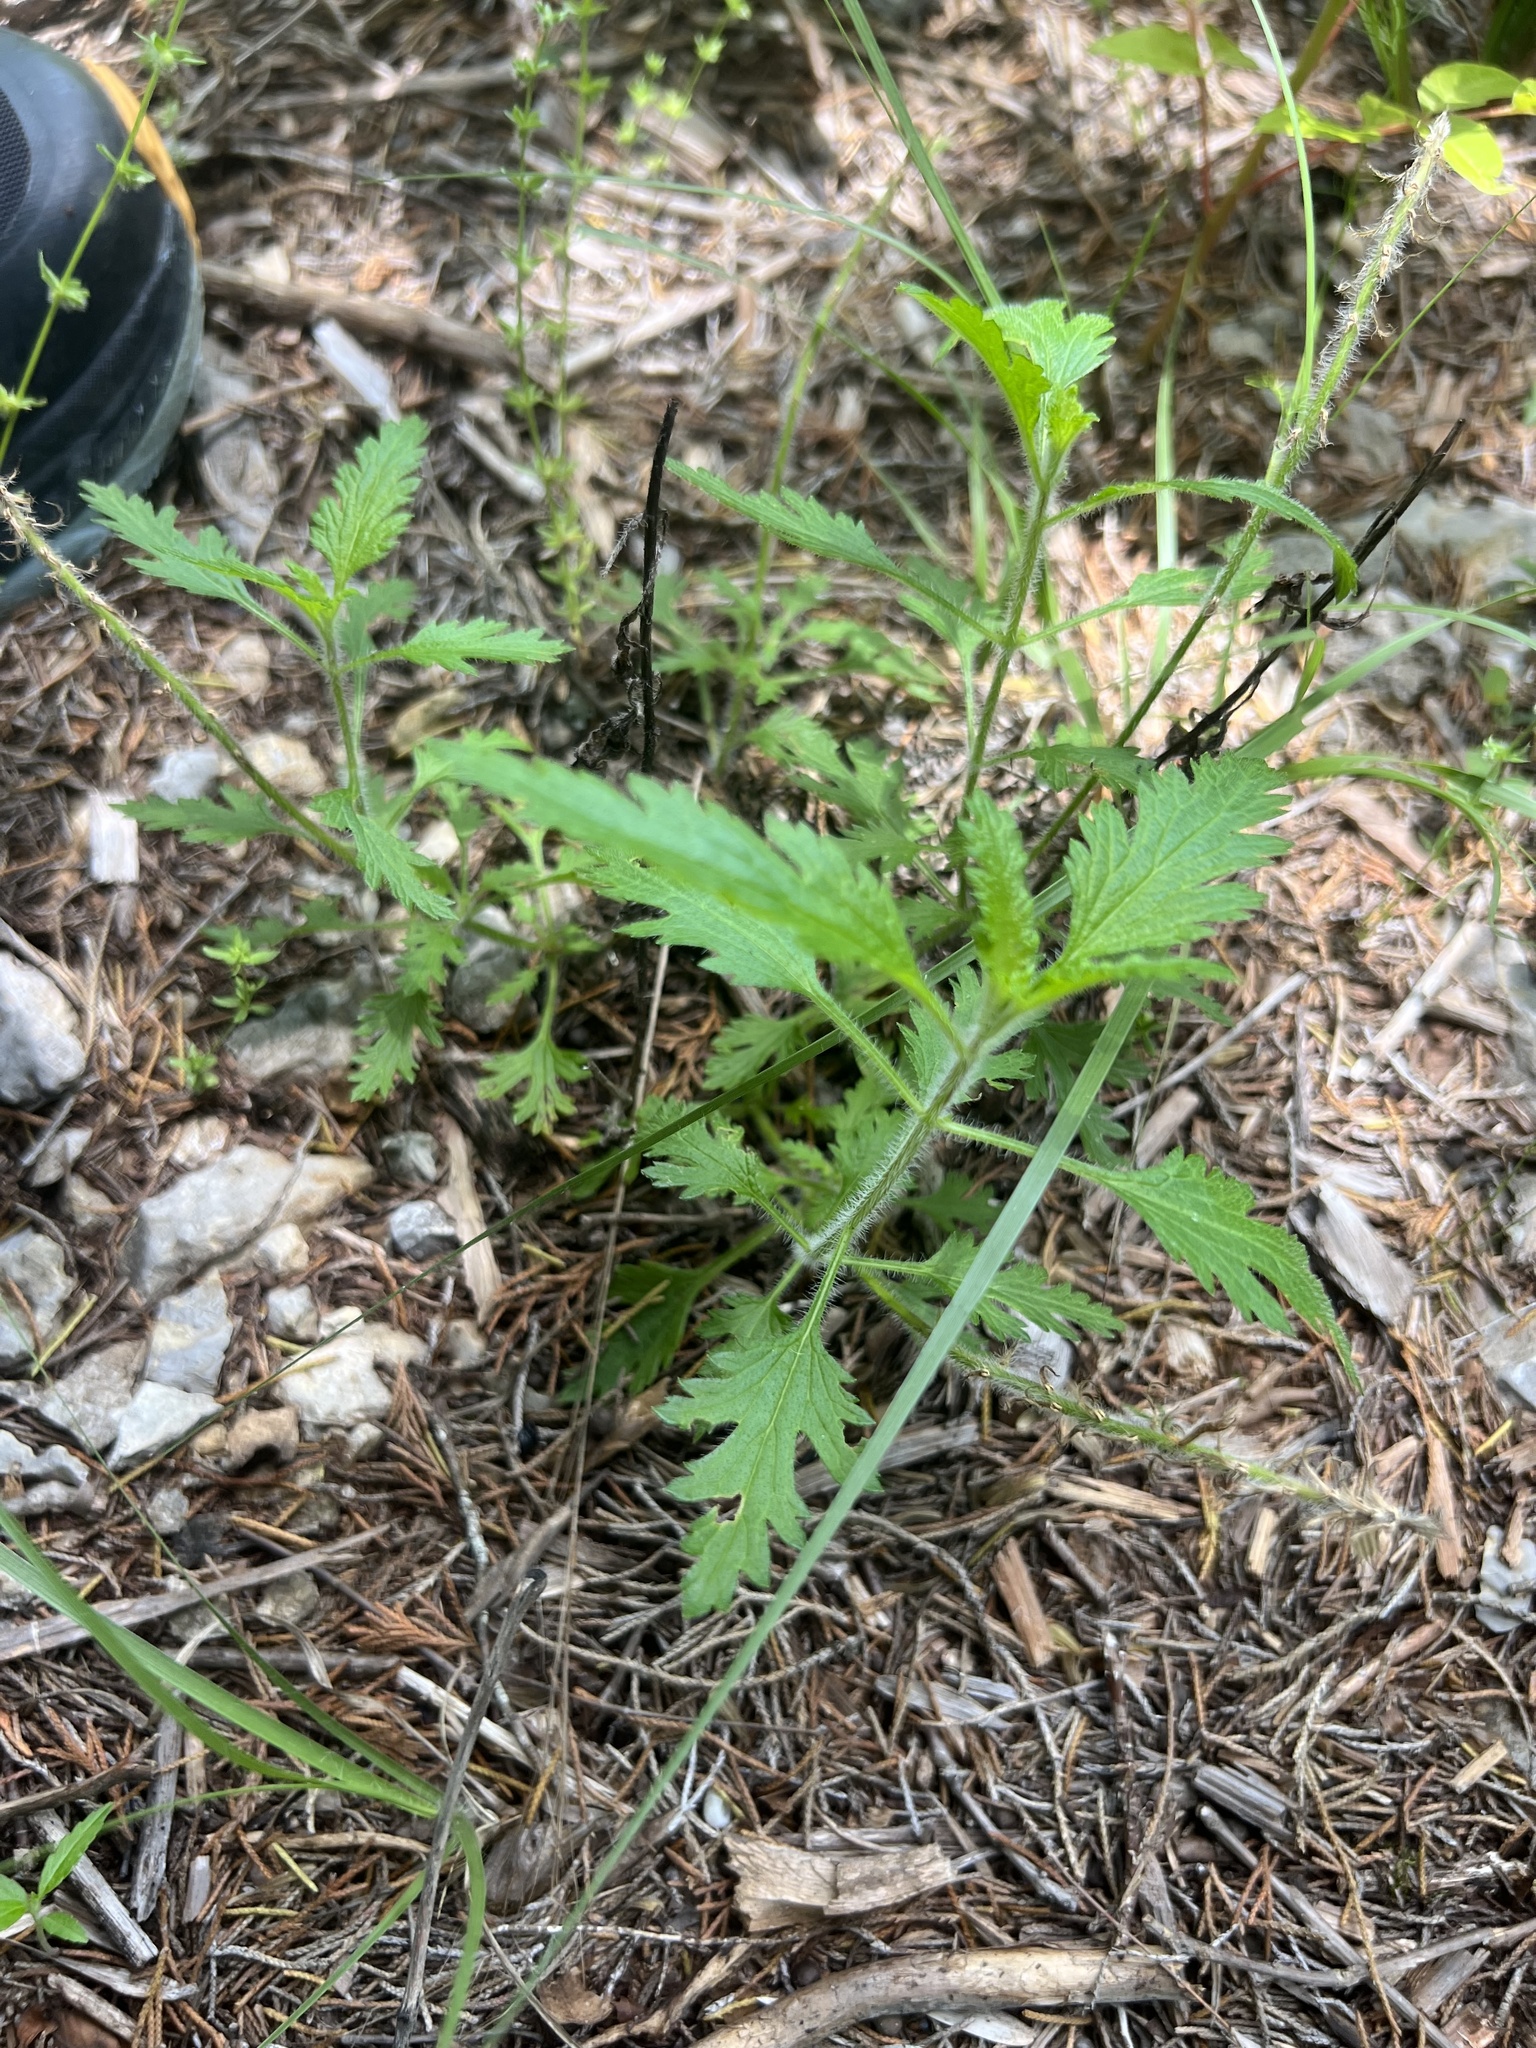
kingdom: Plantae
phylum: Tracheophyta
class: Magnoliopsida
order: Lamiales
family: Verbenaceae
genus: Verbena
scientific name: Verbena canadensis
